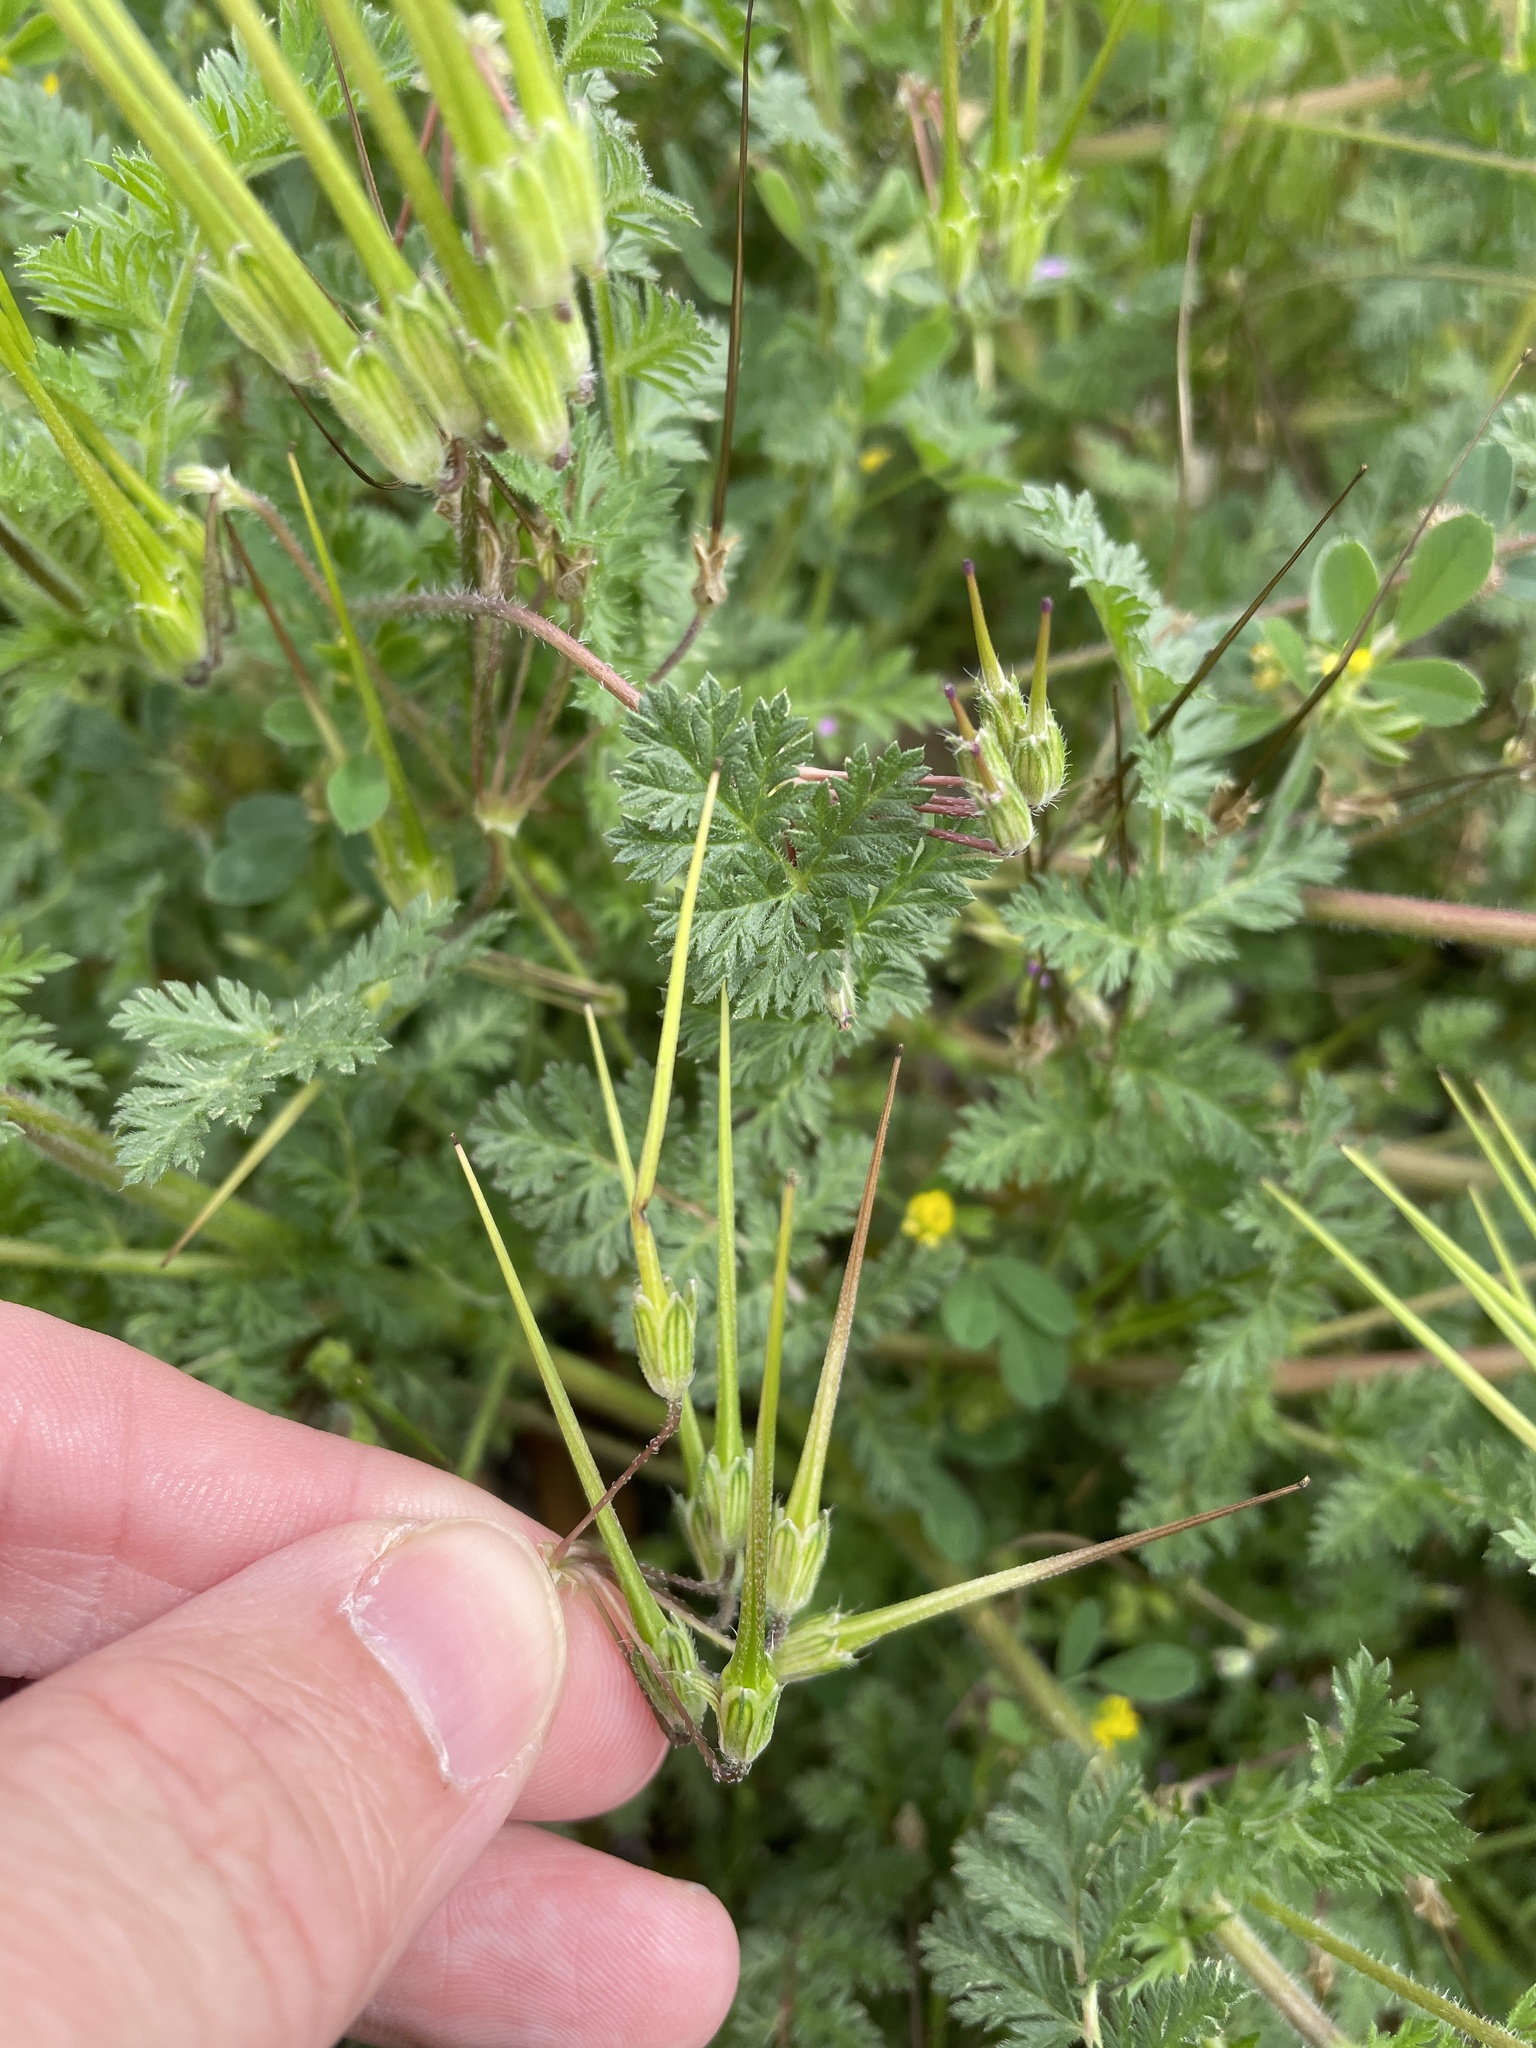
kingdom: Plantae
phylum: Tracheophyta
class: Magnoliopsida
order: Geraniales
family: Geraniaceae
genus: Erodium
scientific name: Erodium cicutarium
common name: Common stork's-bill
